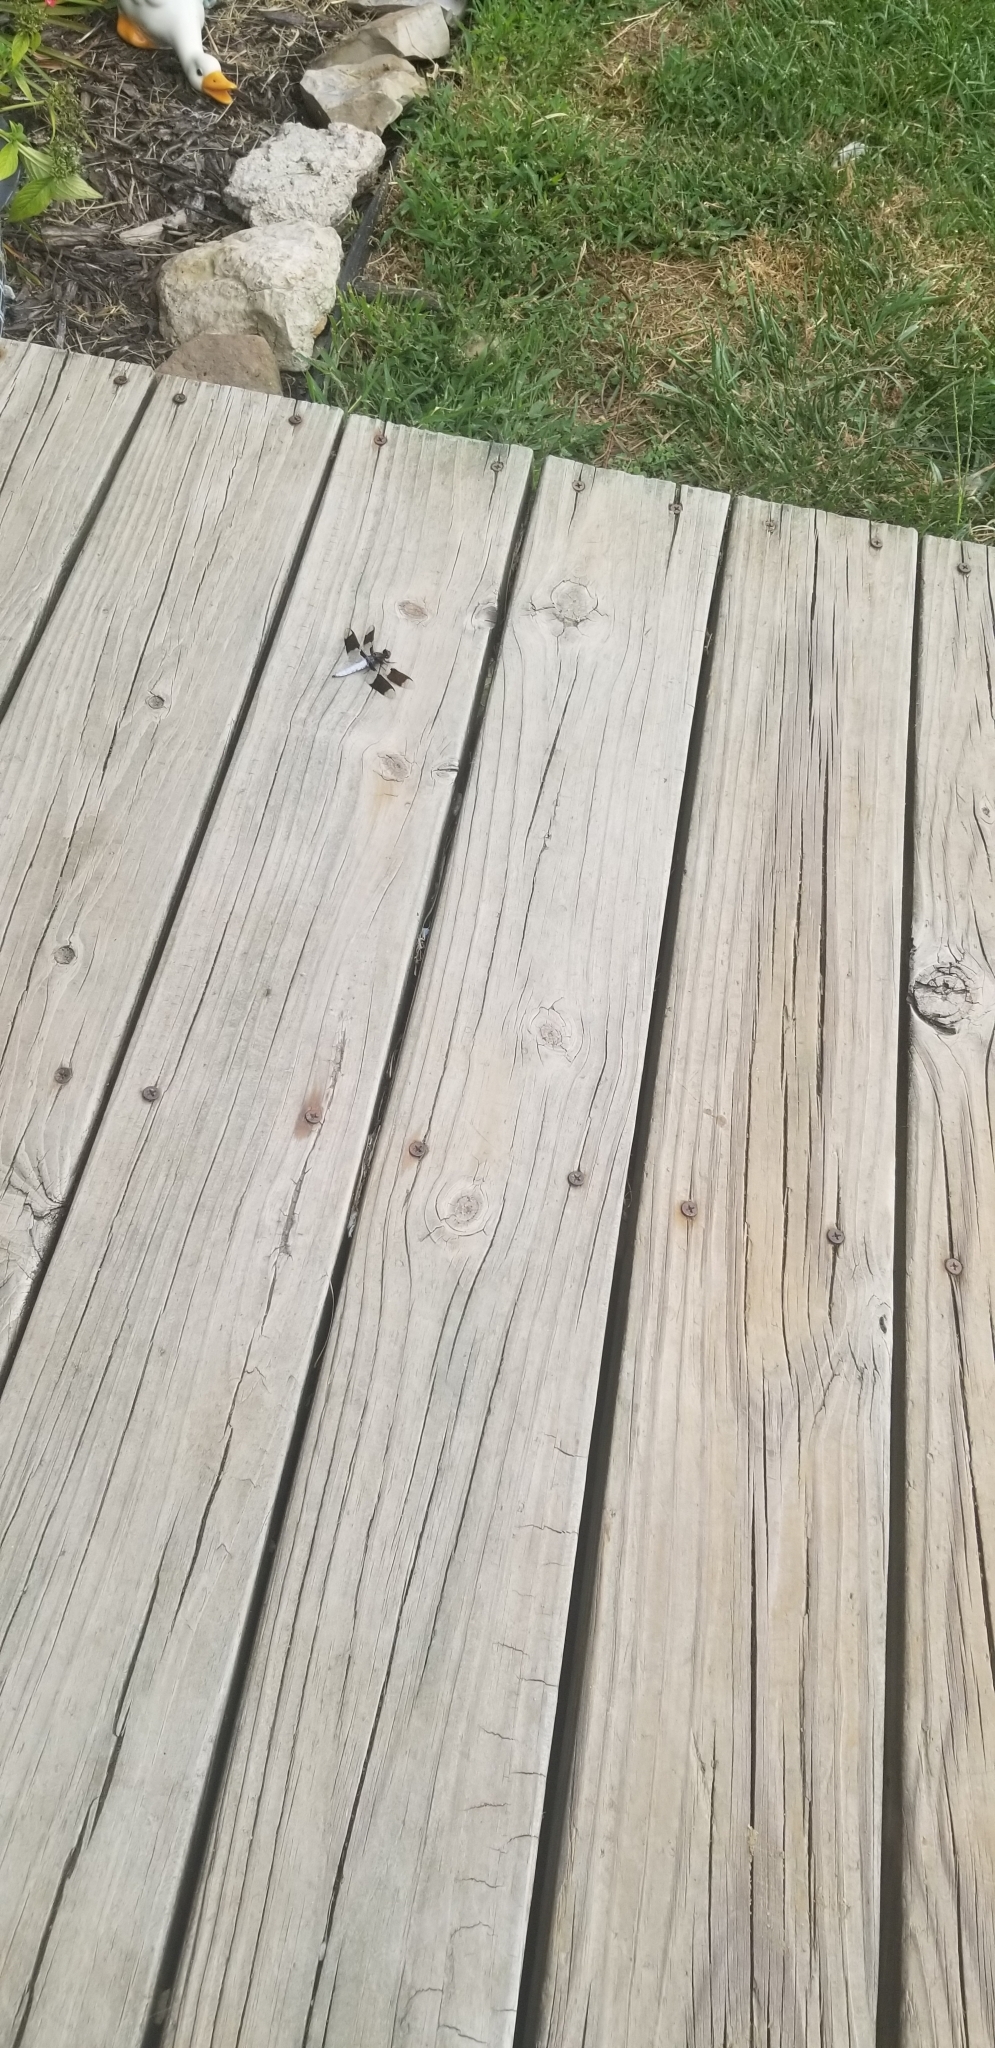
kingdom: Animalia
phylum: Arthropoda
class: Insecta
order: Odonata
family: Libellulidae
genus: Plathemis
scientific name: Plathemis lydia
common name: Common whitetail
